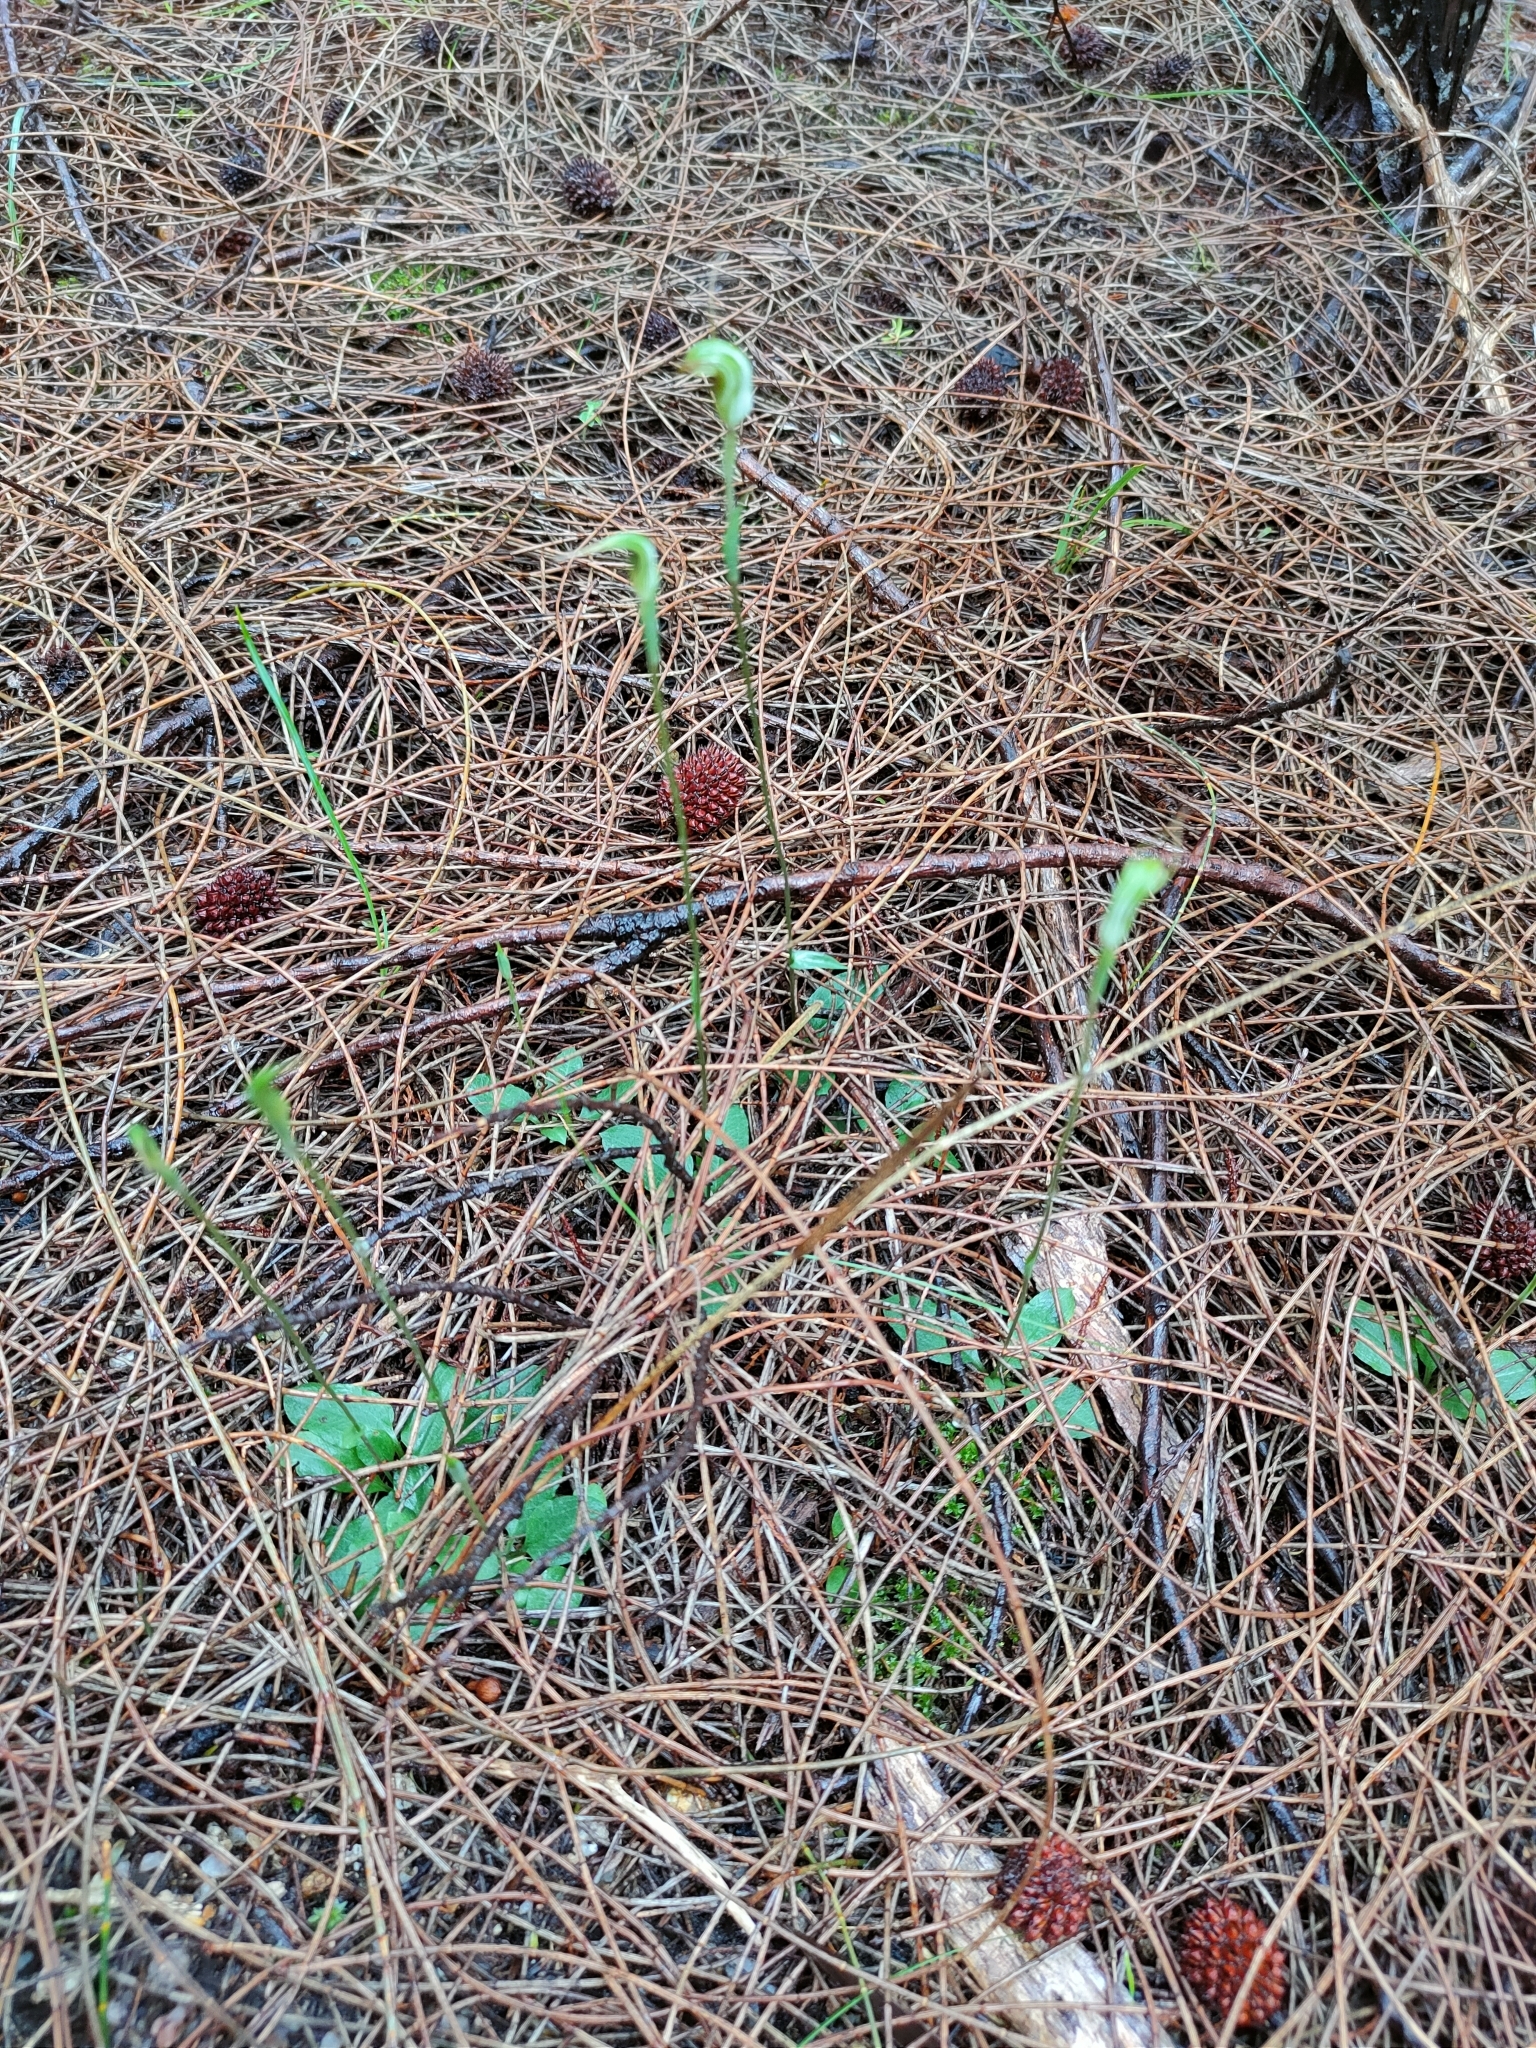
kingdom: Plantae
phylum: Tracheophyta
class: Liliopsida
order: Asparagales
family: Orchidaceae
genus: Pterostylis
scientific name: Pterostylis concinna
